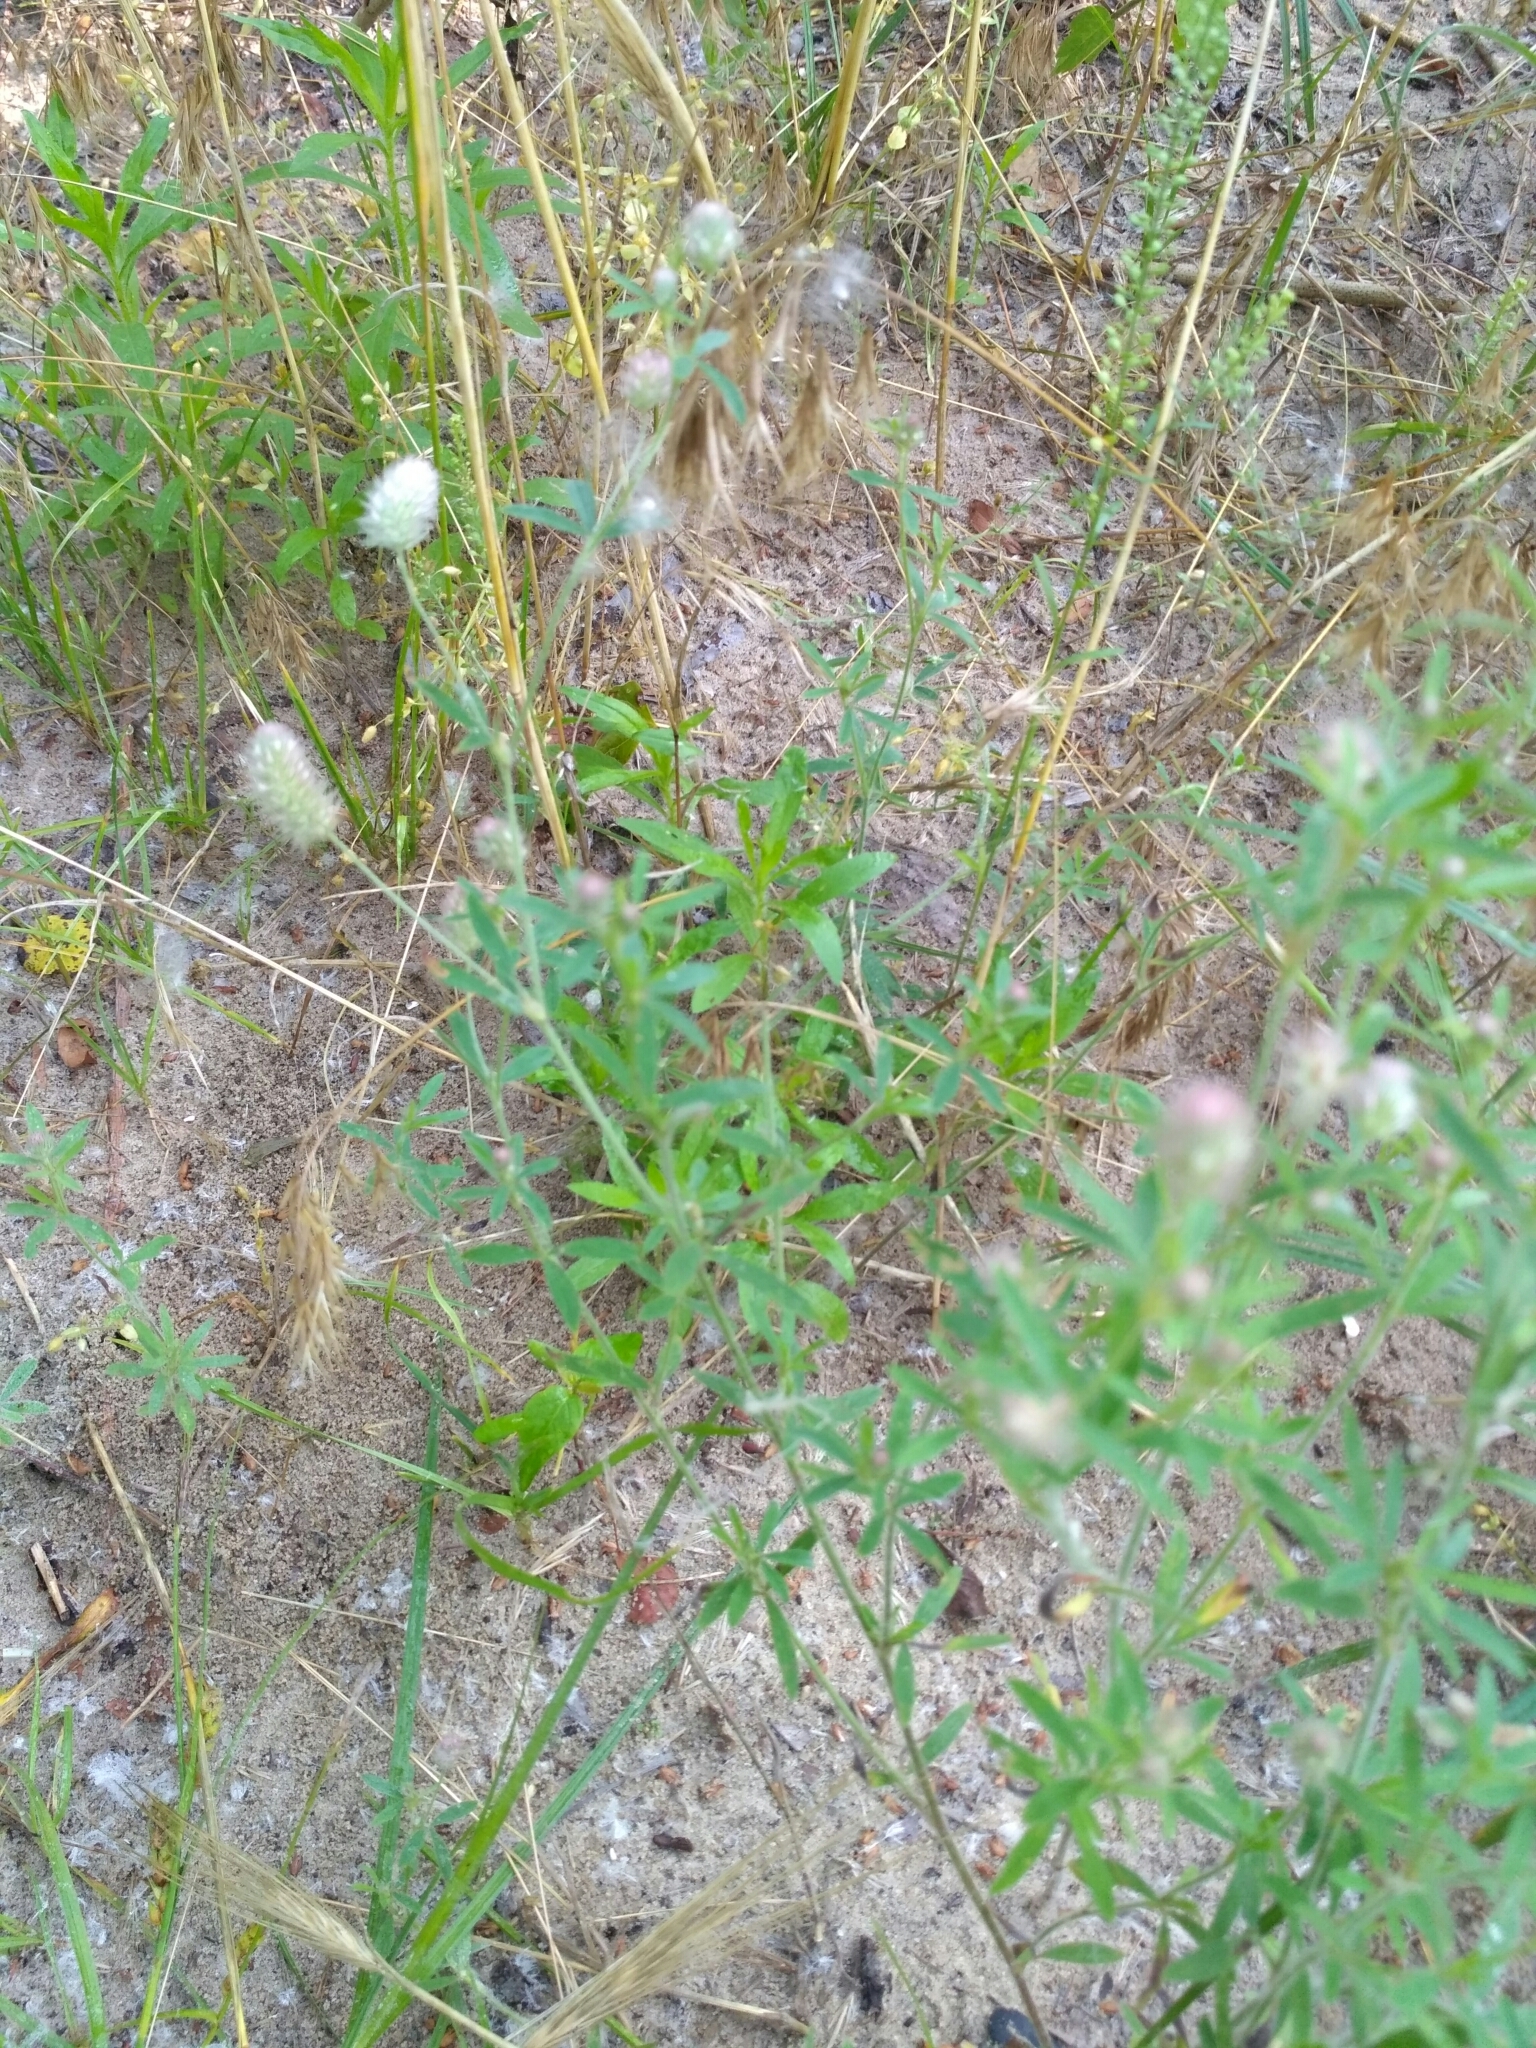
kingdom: Plantae
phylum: Tracheophyta
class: Magnoliopsida
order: Fabales
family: Fabaceae
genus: Trifolium
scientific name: Trifolium arvense
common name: Hare's-foot clover
